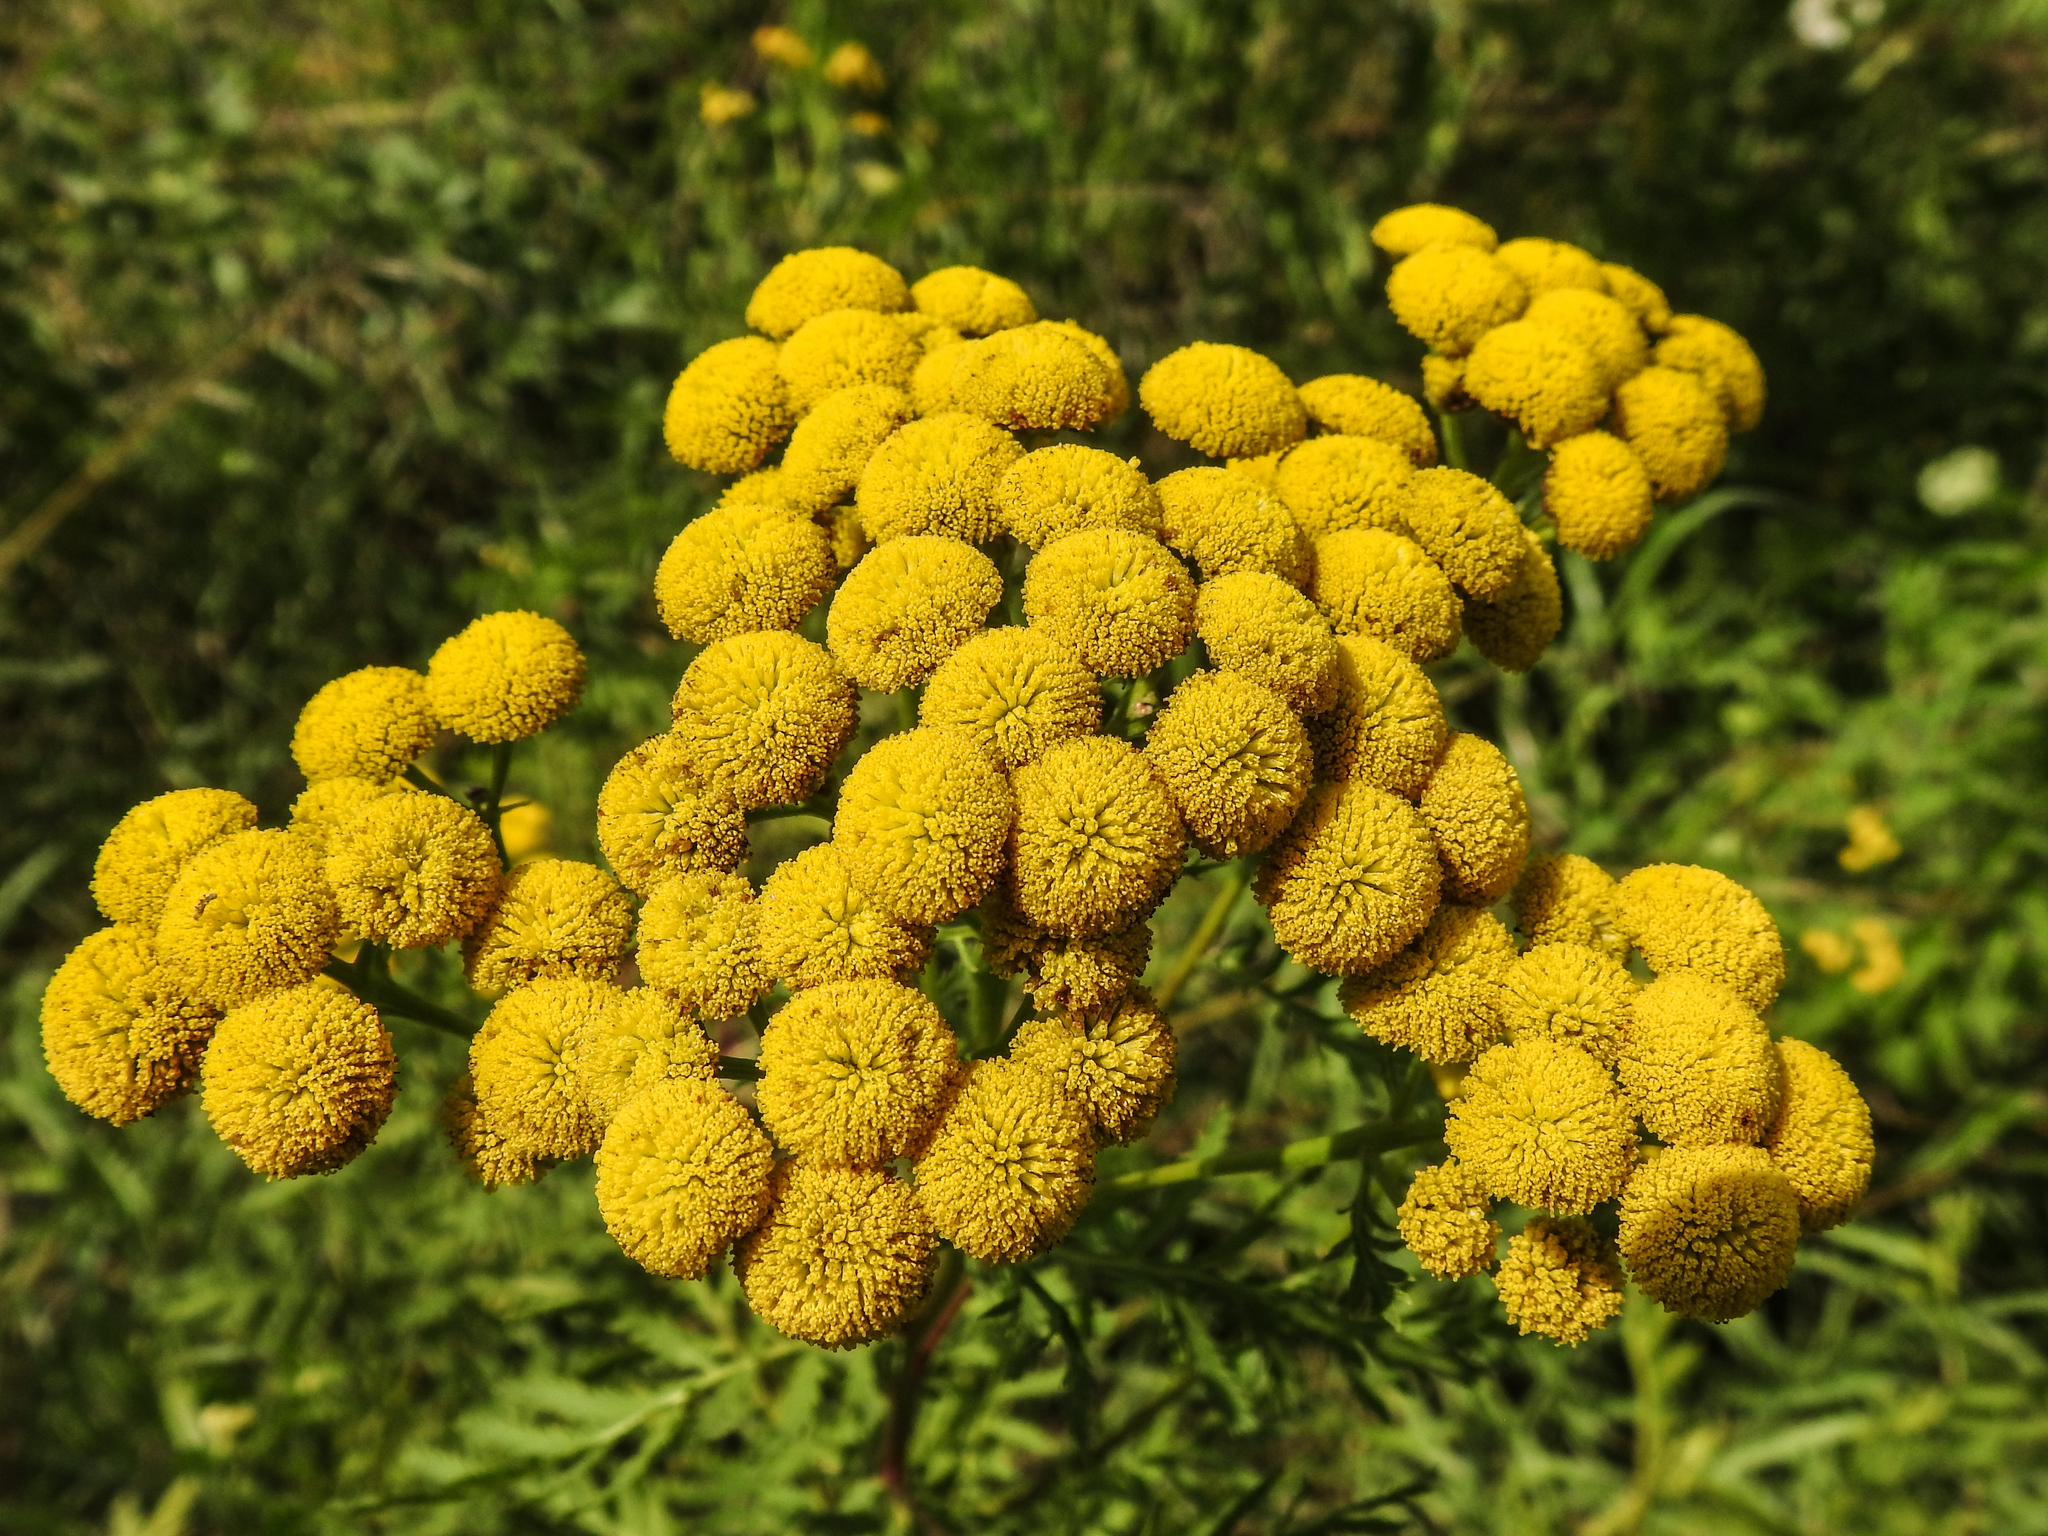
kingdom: Plantae
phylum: Tracheophyta
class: Magnoliopsida
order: Asterales
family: Asteraceae
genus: Tanacetum
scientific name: Tanacetum vulgare
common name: Common tansy
